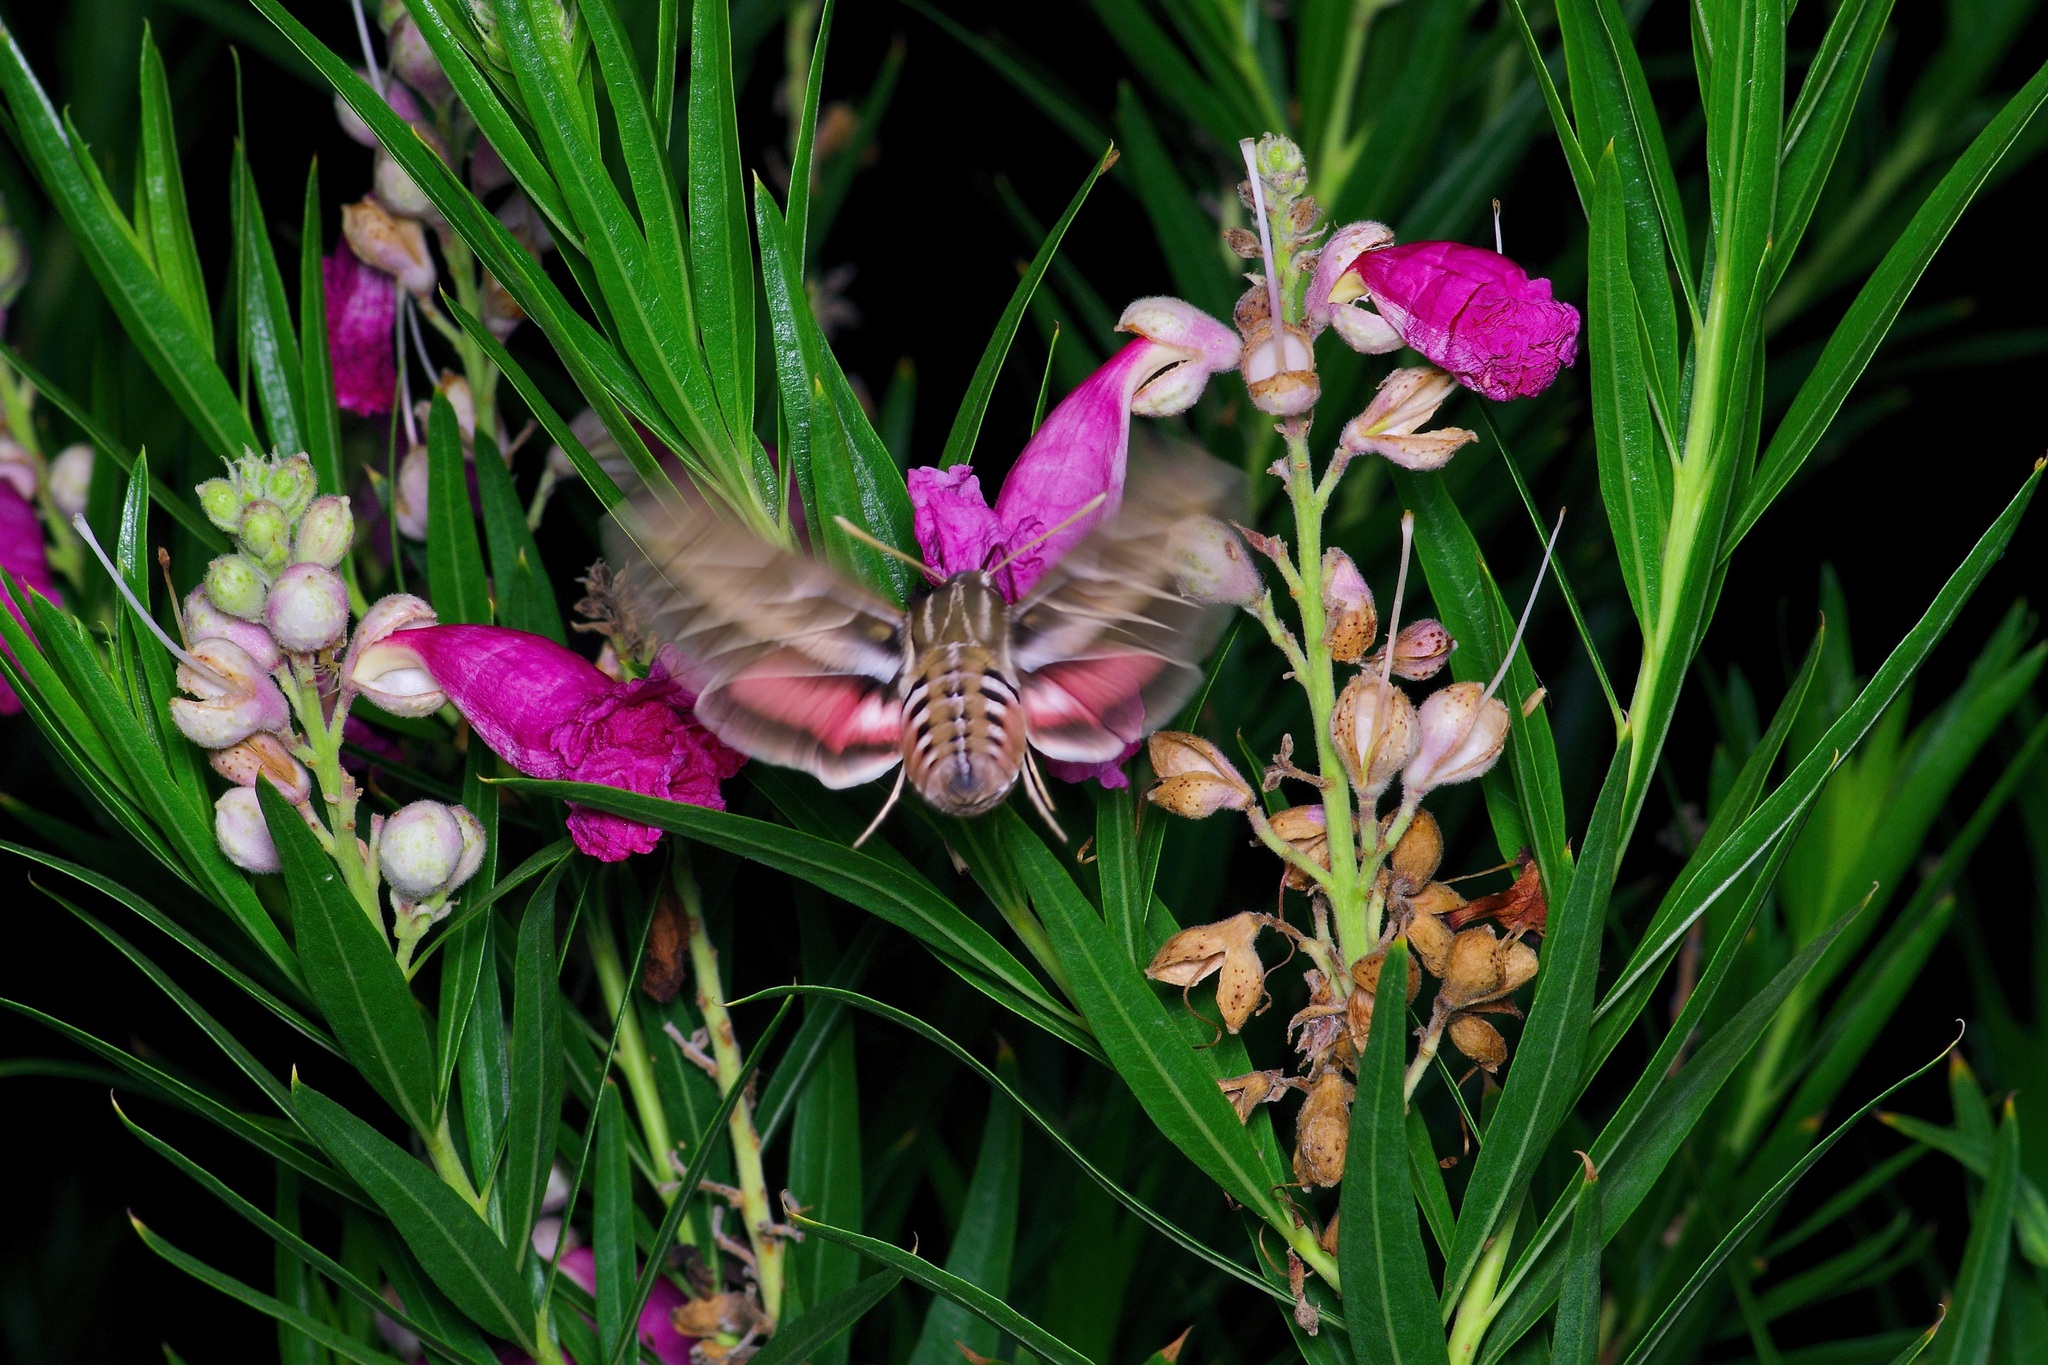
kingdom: Animalia
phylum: Arthropoda
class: Insecta
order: Lepidoptera
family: Sphingidae
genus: Hyles
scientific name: Hyles lineata
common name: White-lined sphinx
